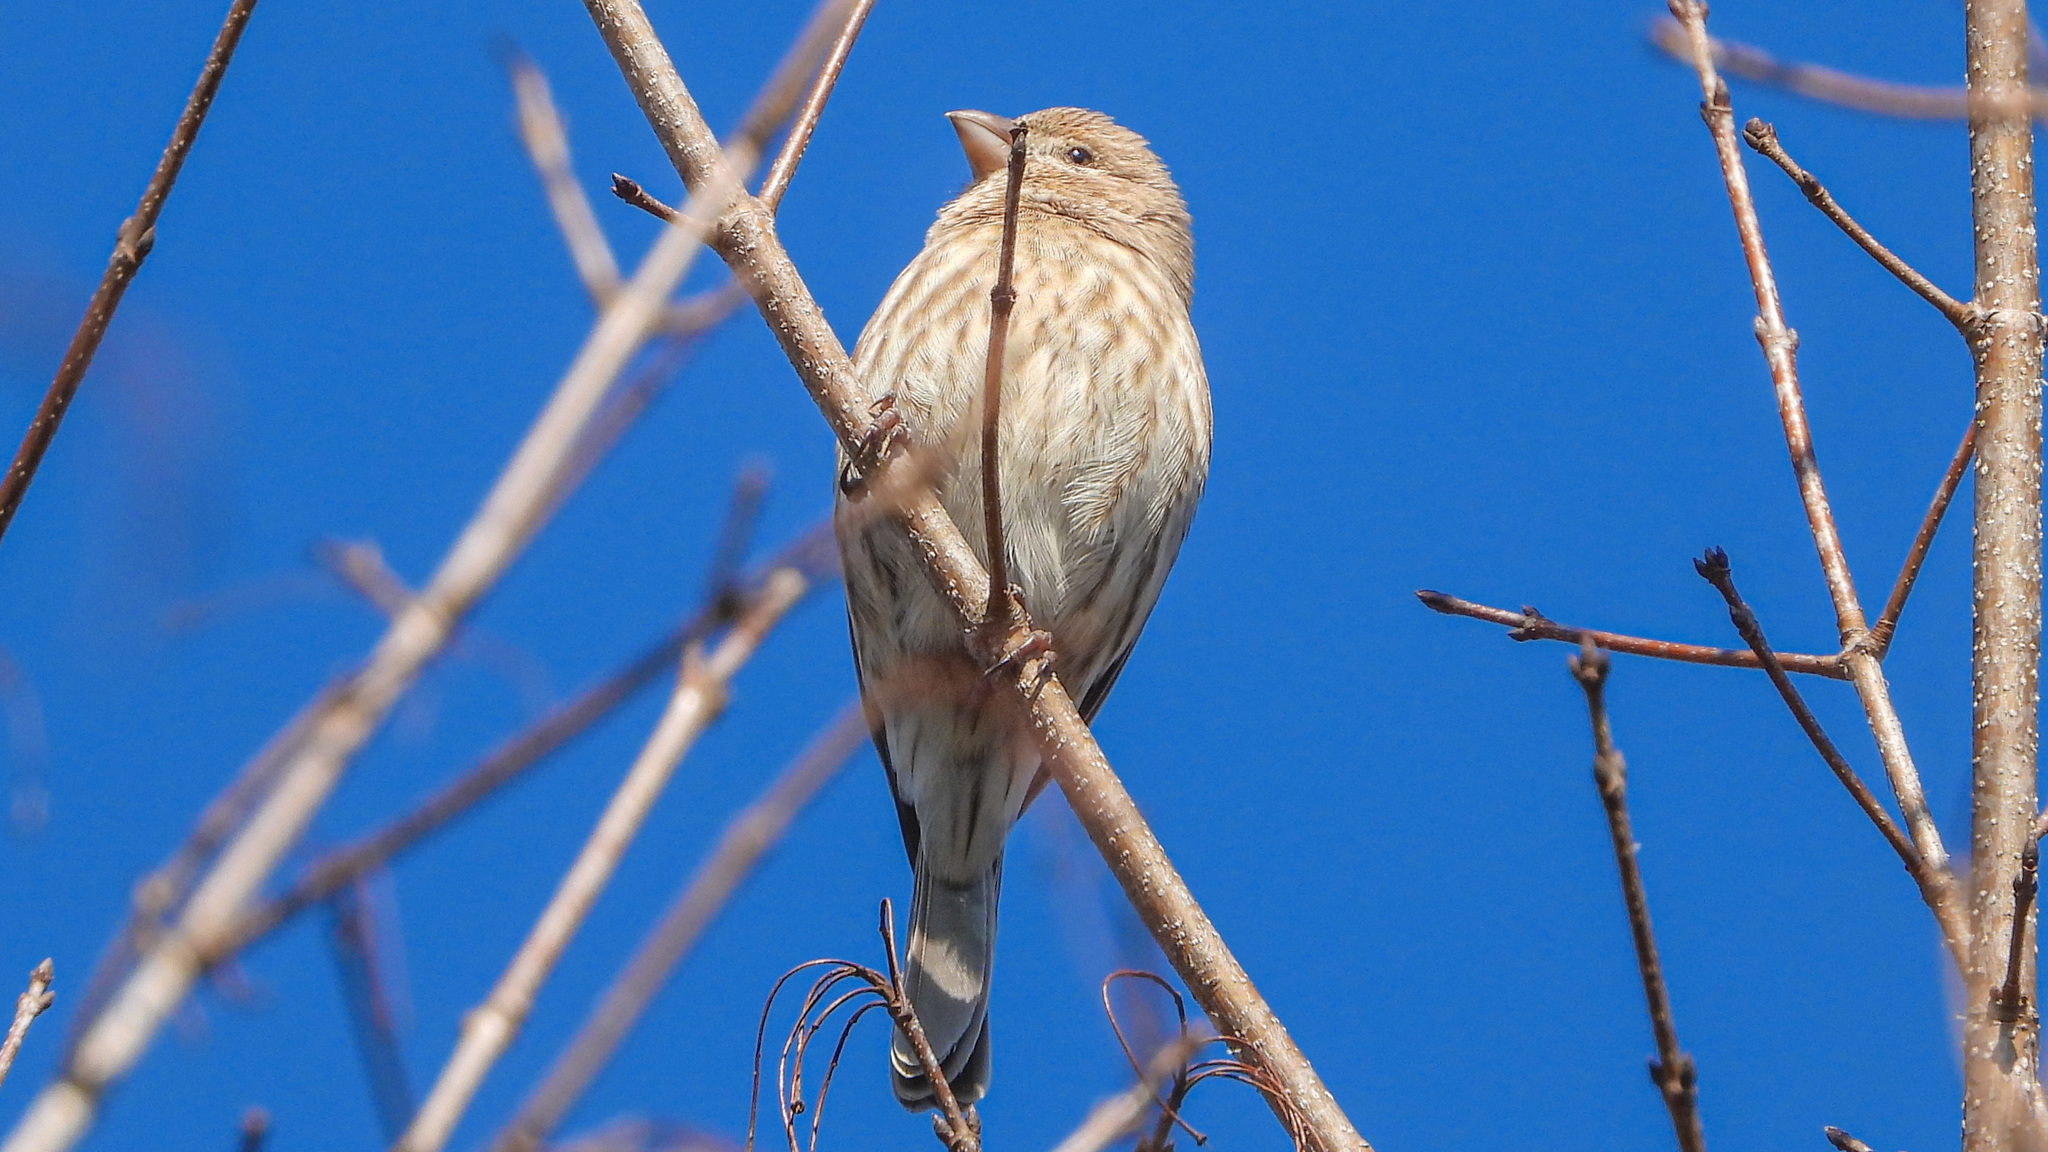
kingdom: Animalia
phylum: Chordata
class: Aves
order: Passeriformes
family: Fringillidae
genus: Haemorhous
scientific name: Haemorhous mexicanus
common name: House finch
